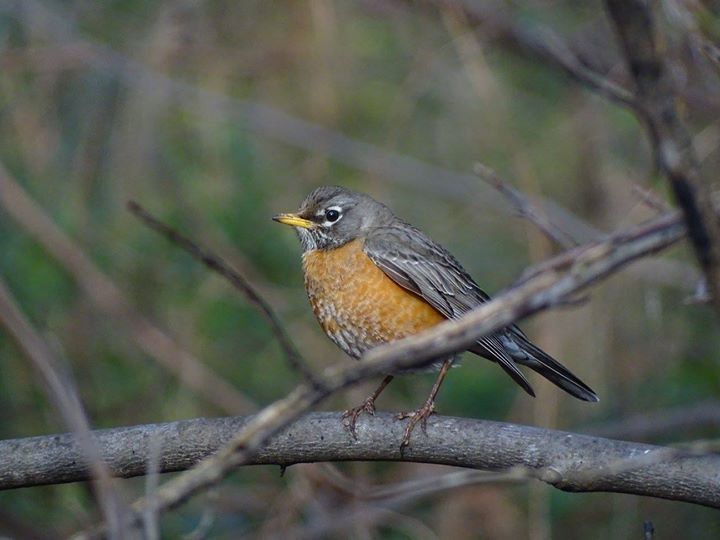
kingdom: Animalia
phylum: Chordata
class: Aves
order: Passeriformes
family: Turdidae
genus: Turdus
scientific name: Turdus migratorius
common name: American robin
